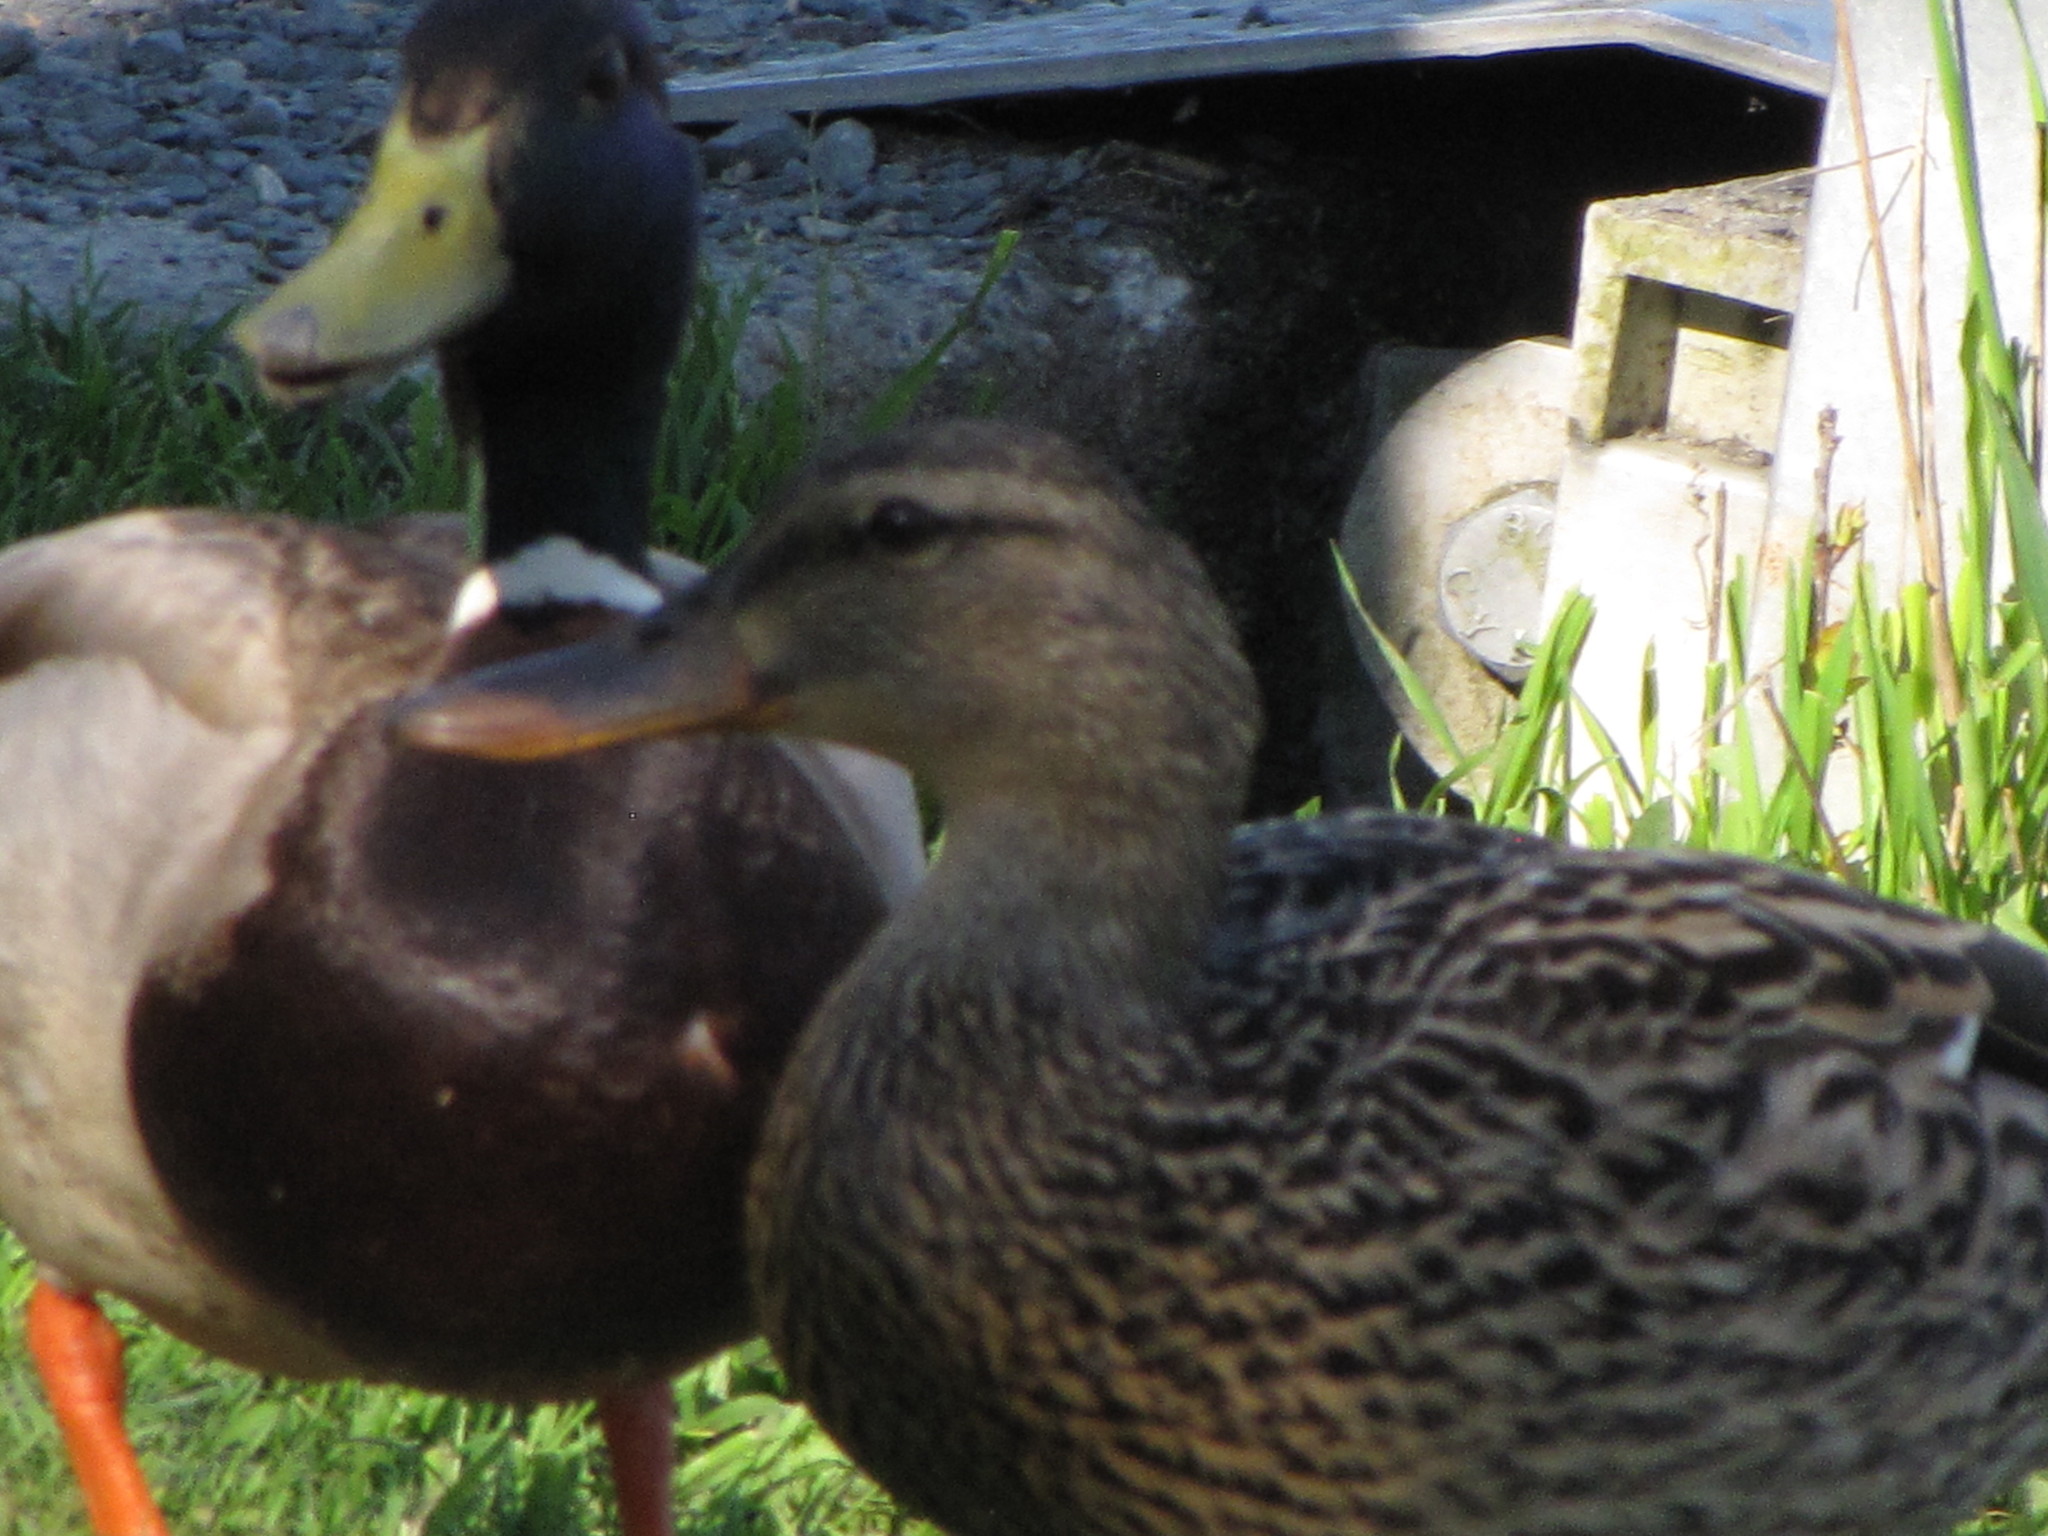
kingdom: Animalia
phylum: Chordata
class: Aves
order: Anseriformes
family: Anatidae
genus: Anas
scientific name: Anas platyrhynchos
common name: Mallard
